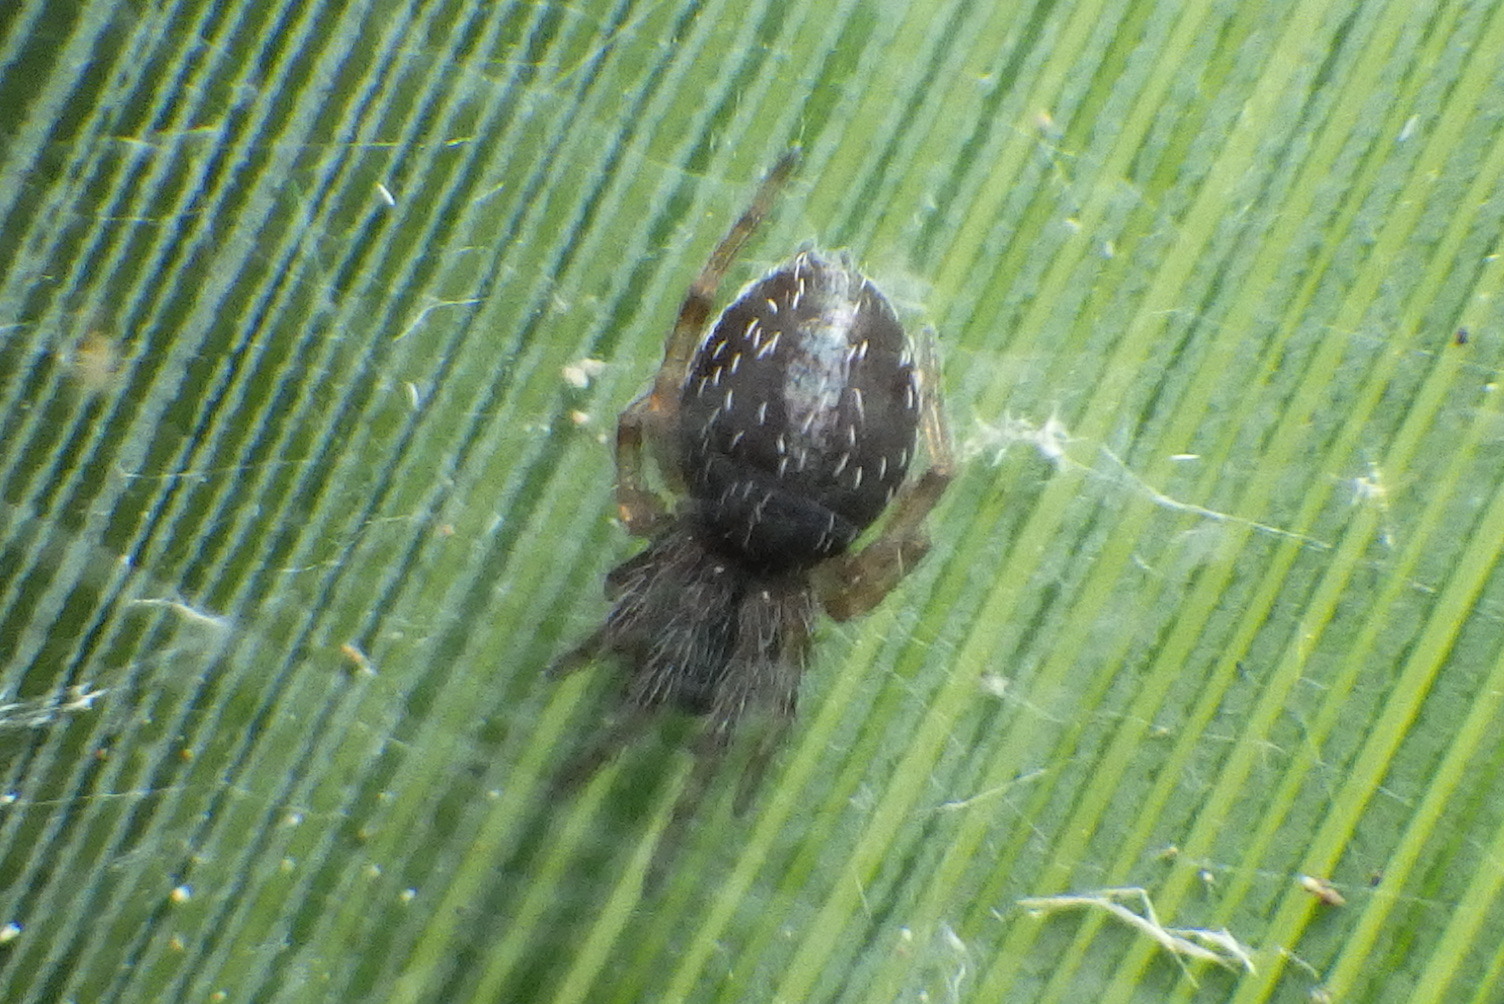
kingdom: Animalia
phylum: Arthropoda
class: Arachnida
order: Araneae
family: Desidae
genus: Badumna
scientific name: Badumna longinqua
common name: Gray house spider
